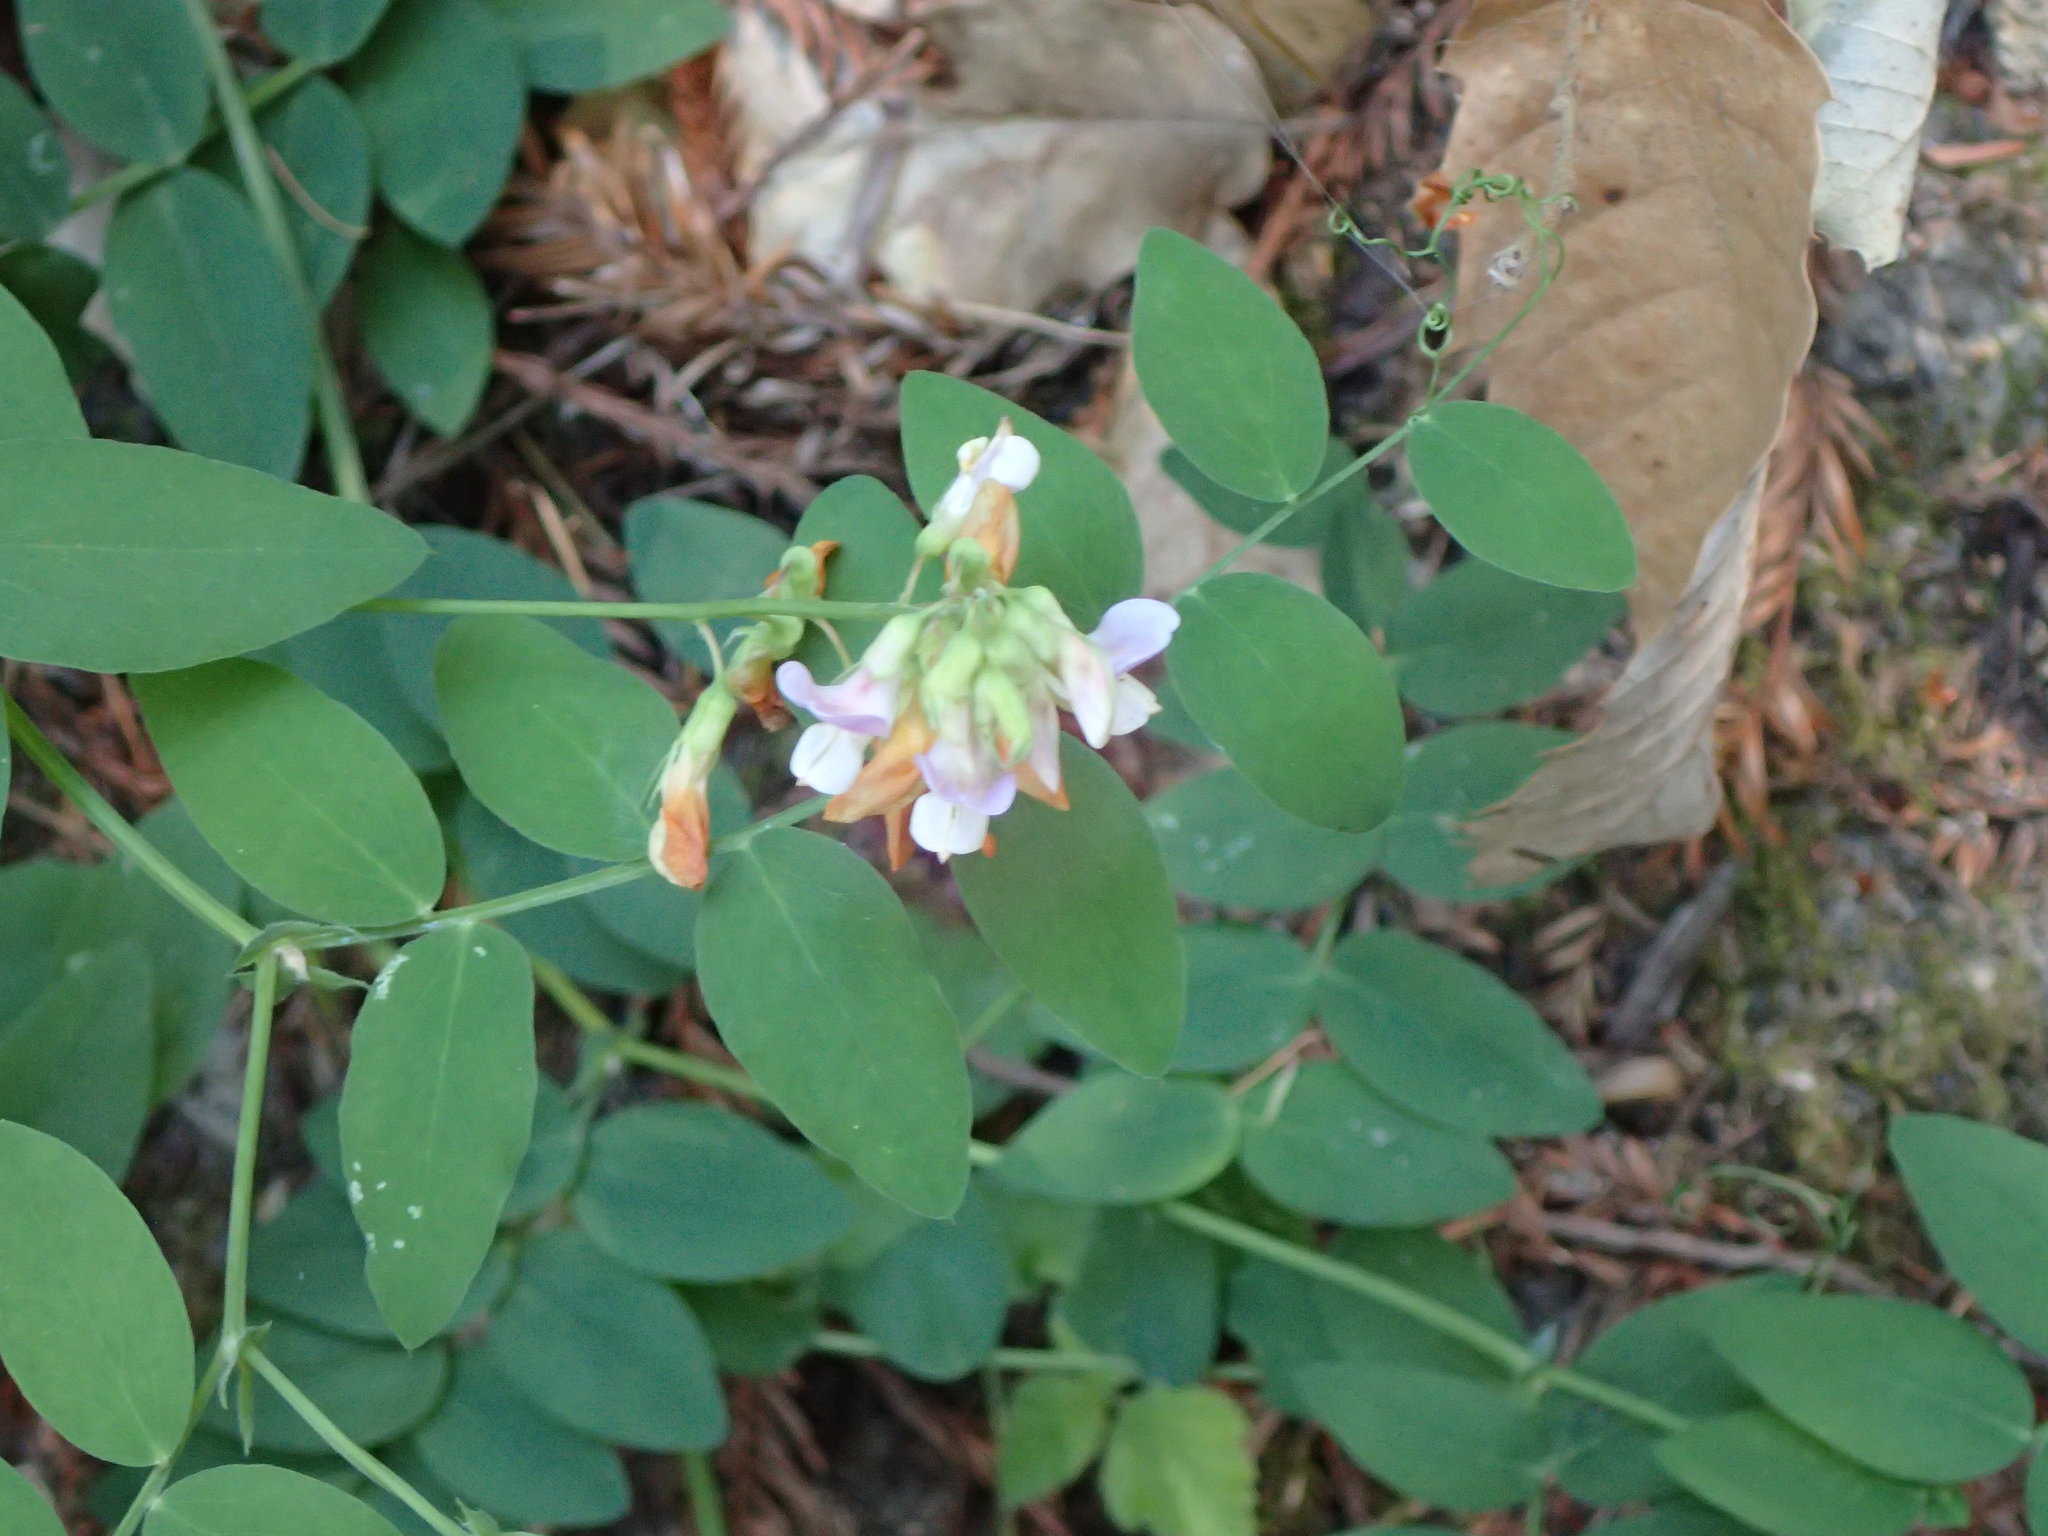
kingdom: Plantae
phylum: Tracheophyta
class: Magnoliopsida
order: Fabales
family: Fabaceae
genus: Lathyrus
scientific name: Lathyrus vestitus
